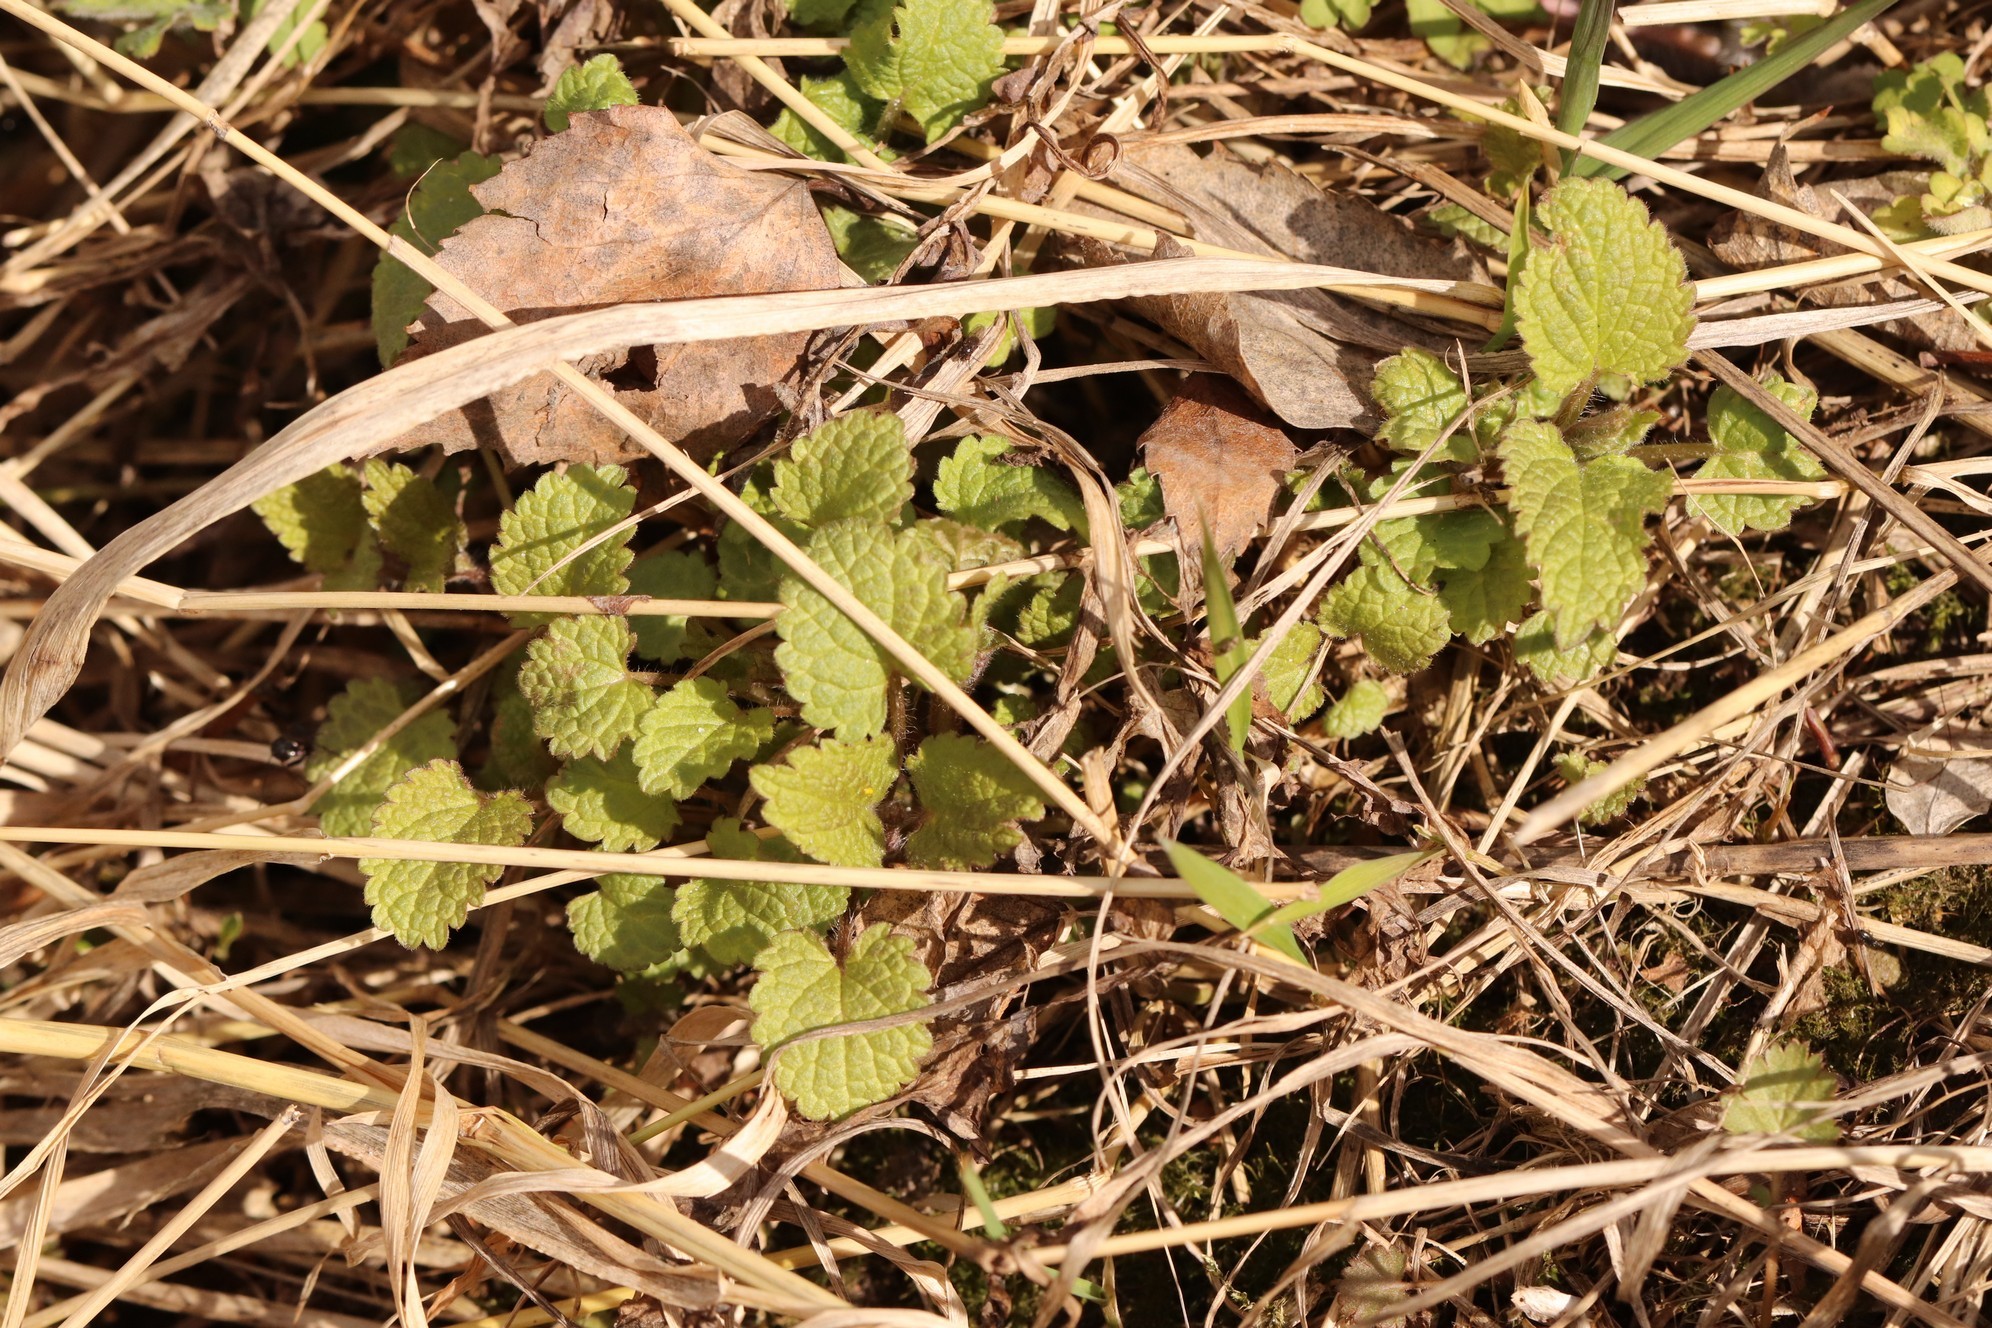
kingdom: Plantae
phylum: Tracheophyta
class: Magnoliopsida
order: Lamiales
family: Lamiaceae
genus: Lamium
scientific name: Lamium album
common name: White dead-nettle
